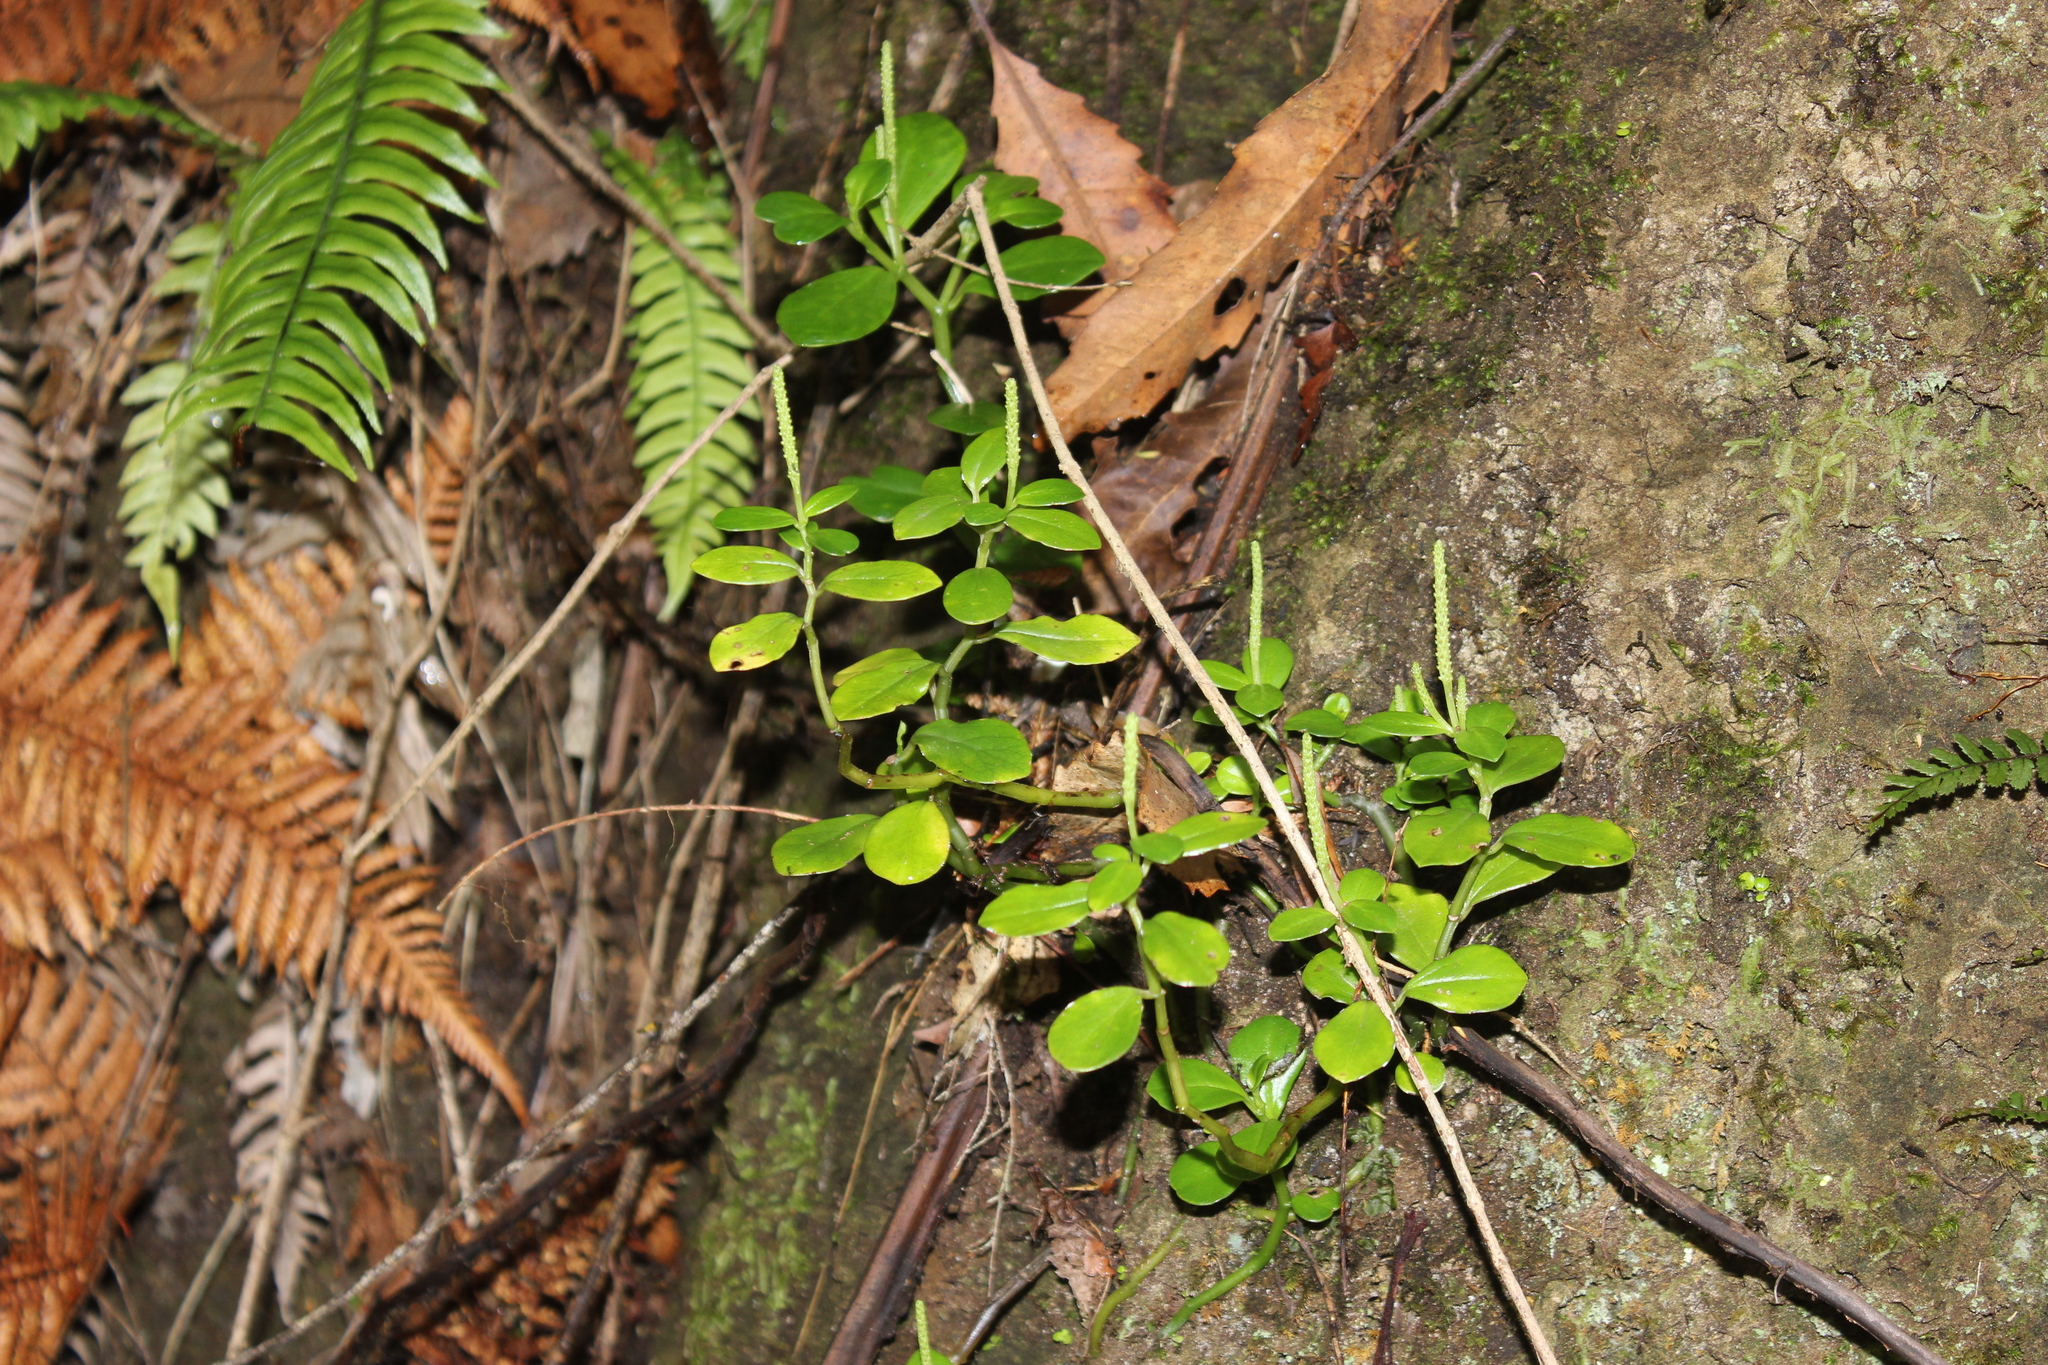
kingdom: Plantae
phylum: Tracheophyta
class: Magnoliopsida
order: Piperales
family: Piperaceae
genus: Peperomia
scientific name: Peperomia urvilleana
